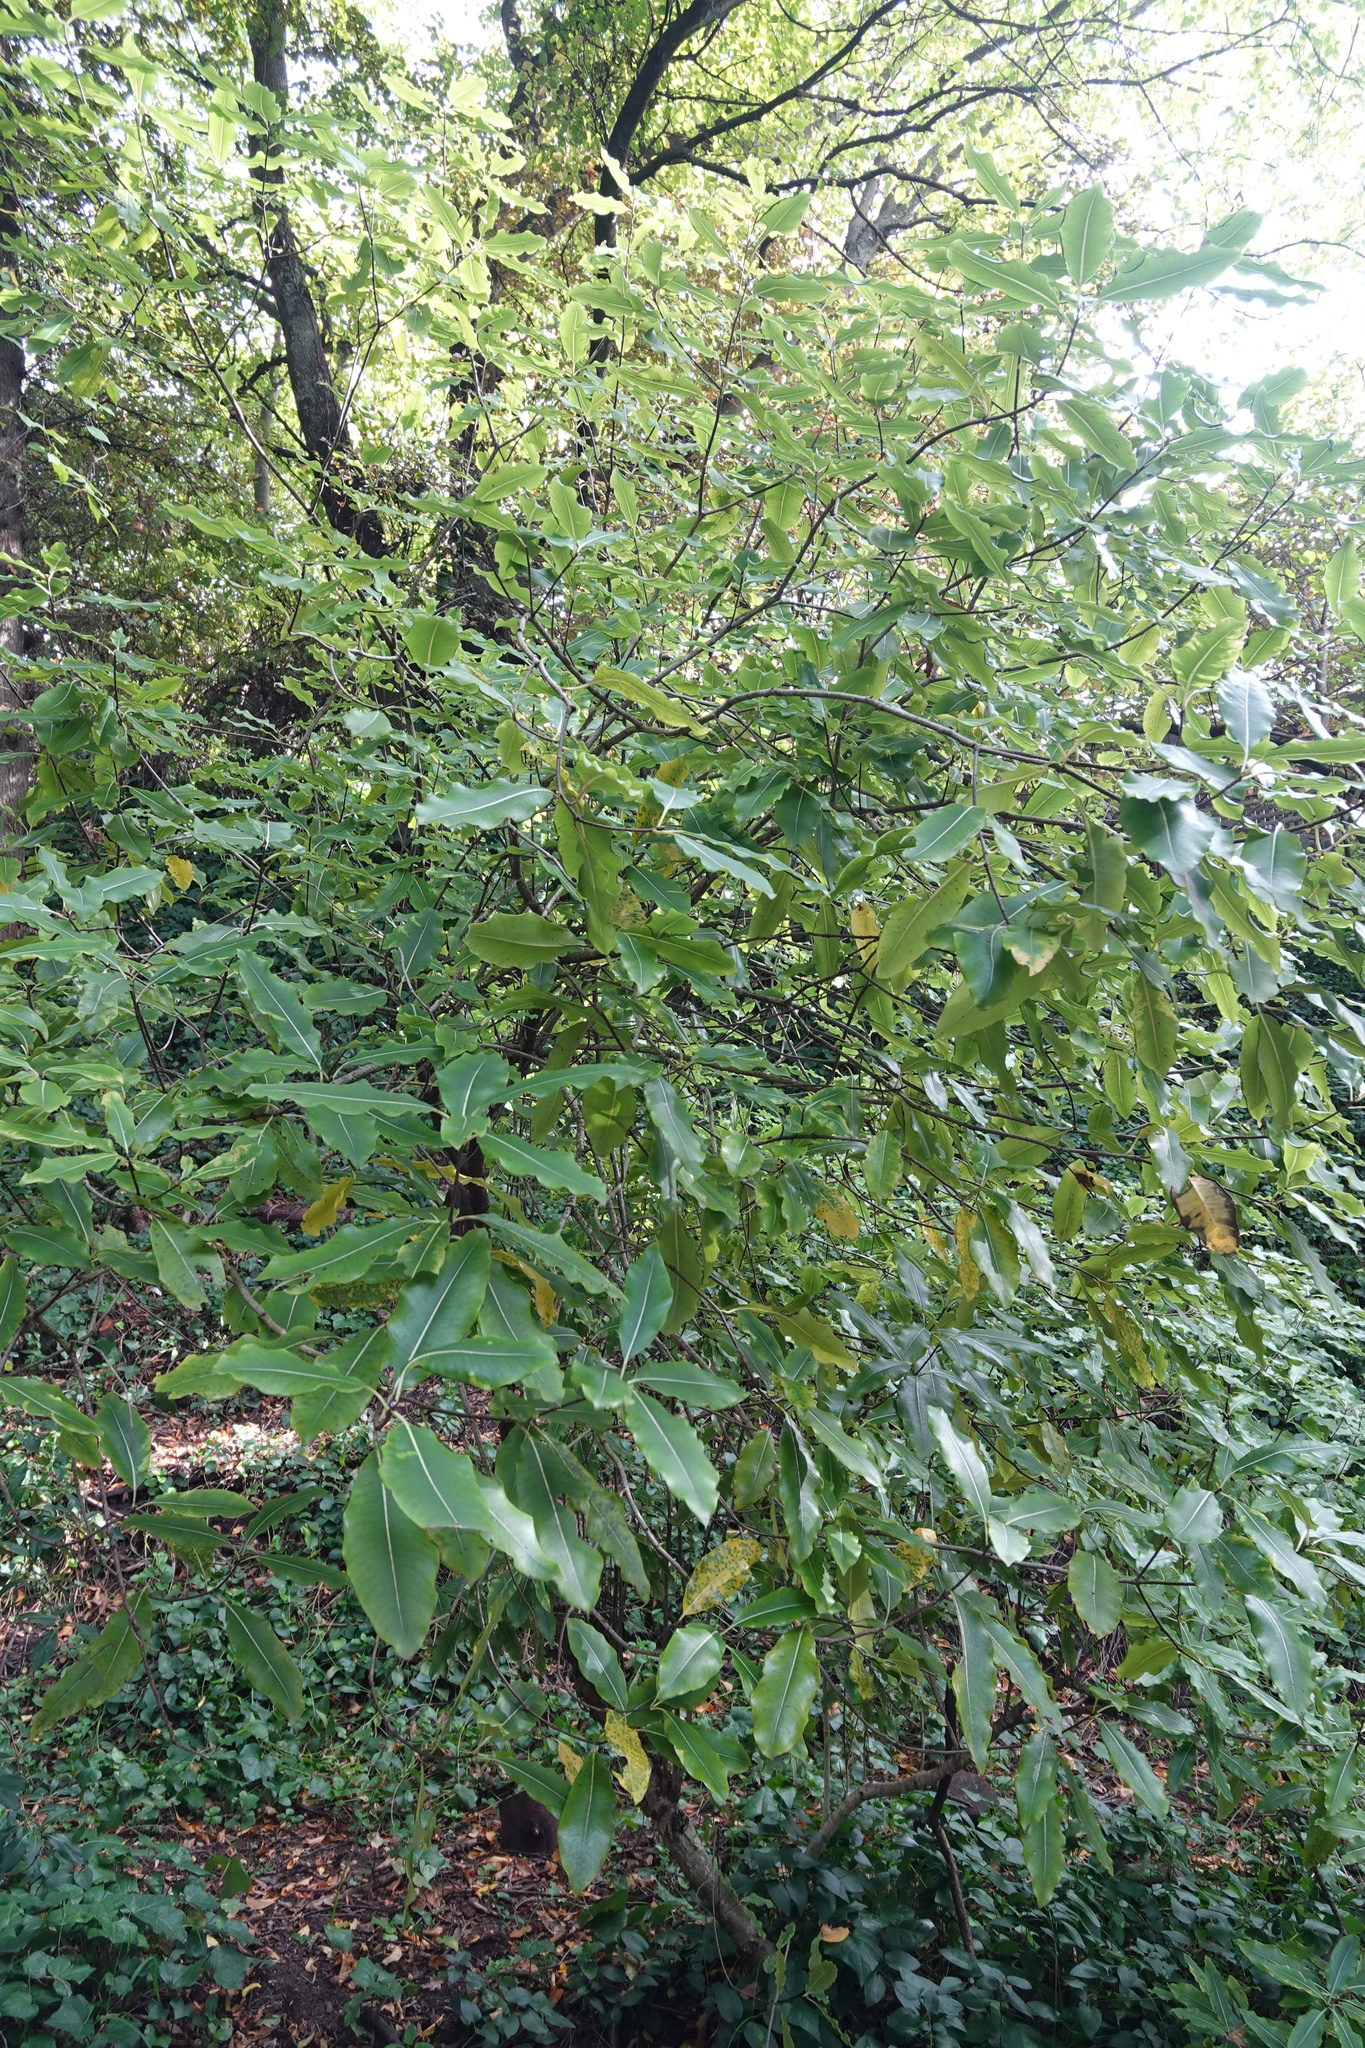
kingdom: Plantae
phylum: Tracheophyta
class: Magnoliopsida
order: Apiales
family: Pittosporaceae
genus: Pittosporum
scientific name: Pittosporum eugenioides
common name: Lemonwood
